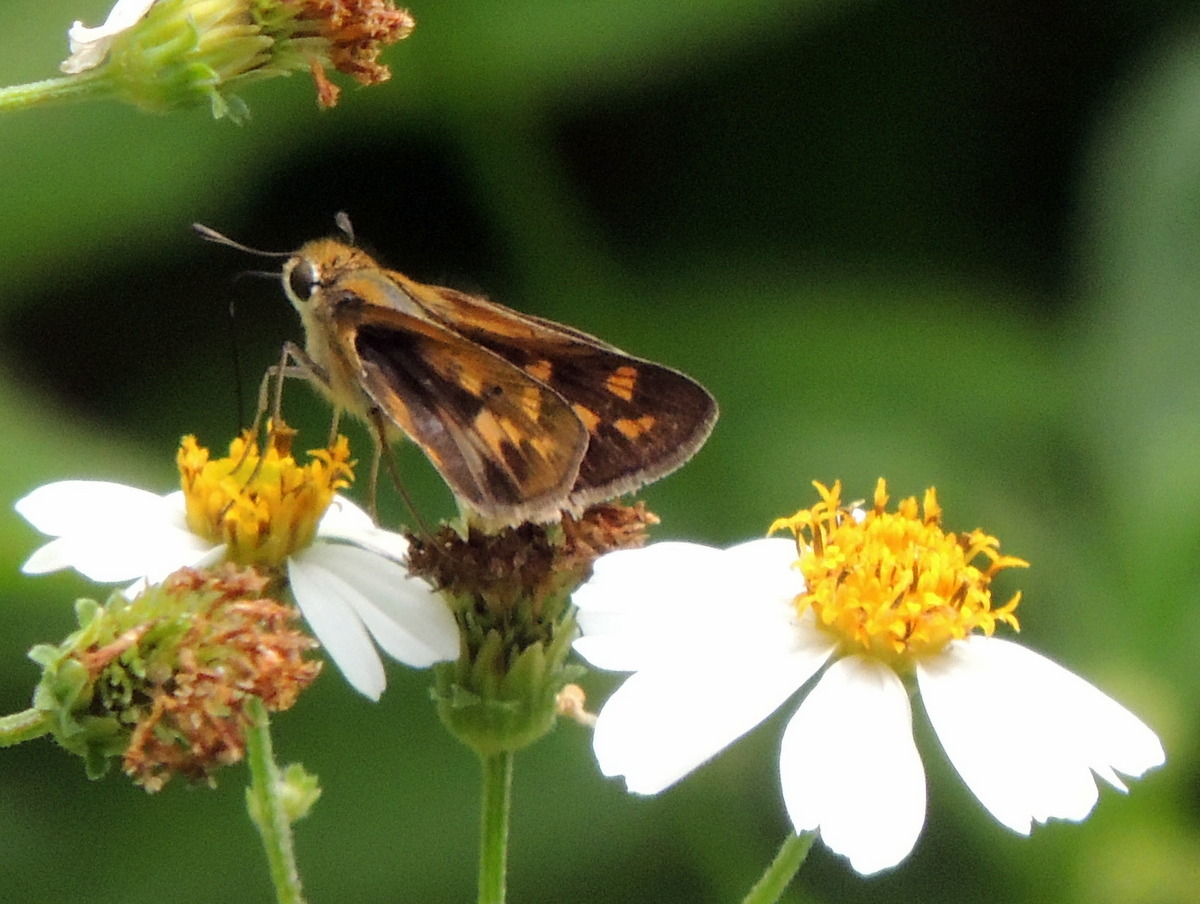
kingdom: Animalia
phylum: Arthropoda
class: Insecta
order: Lepidoptera
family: Hesperiidae
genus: Hylephila
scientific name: Hylephila phyleus
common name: Fiery skipper
